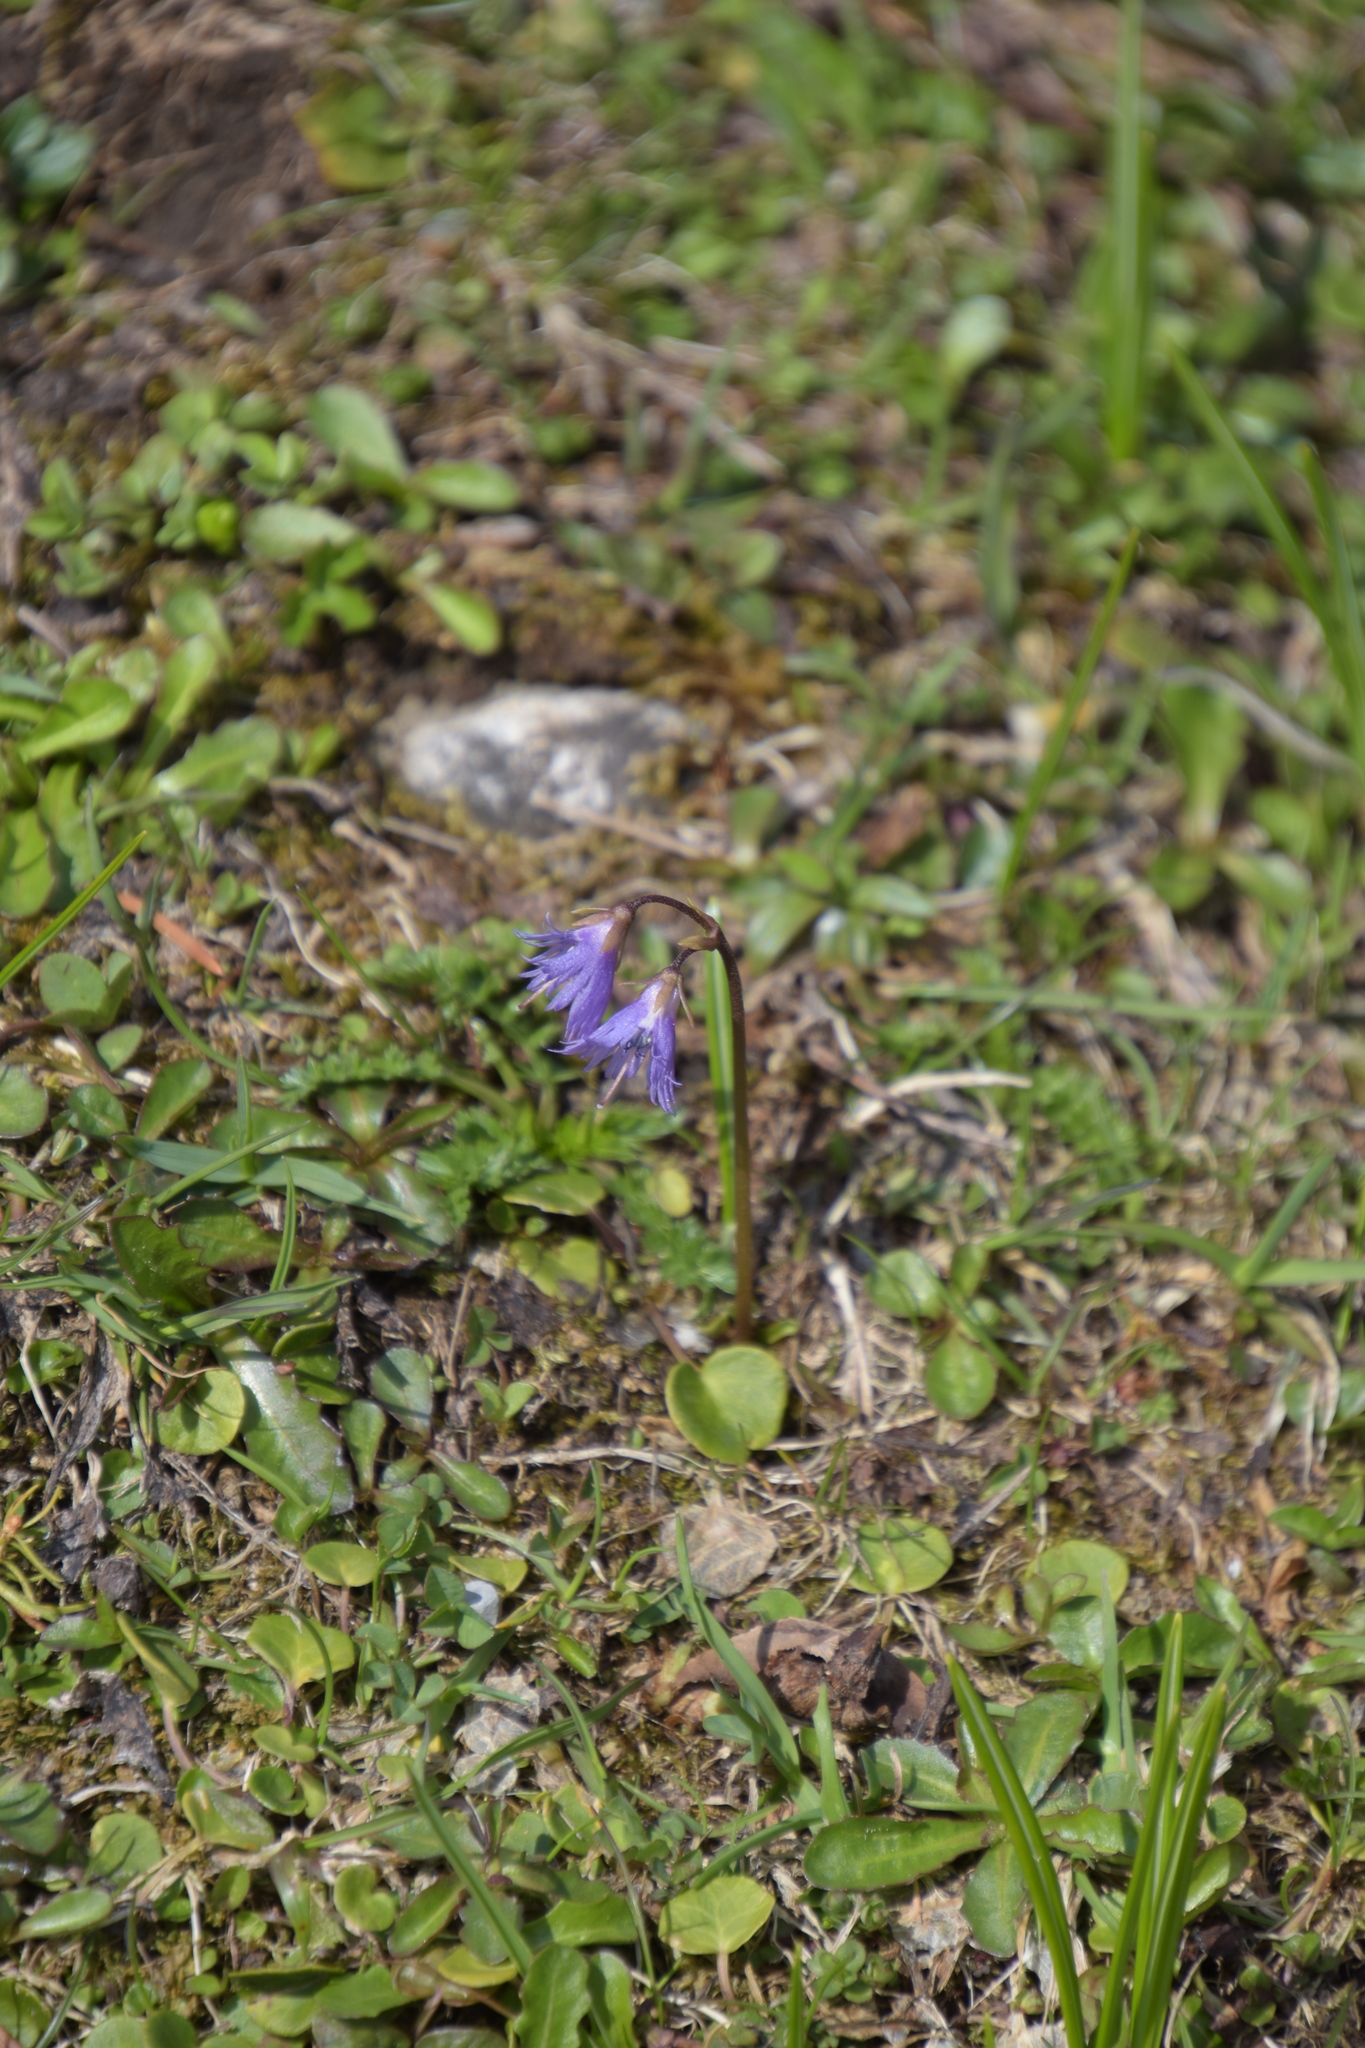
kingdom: Plantae
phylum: Tracheophyta
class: Magnoliopsida
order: Ericales
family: Primulaceae
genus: Soldanella
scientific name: Soldanella alpina
